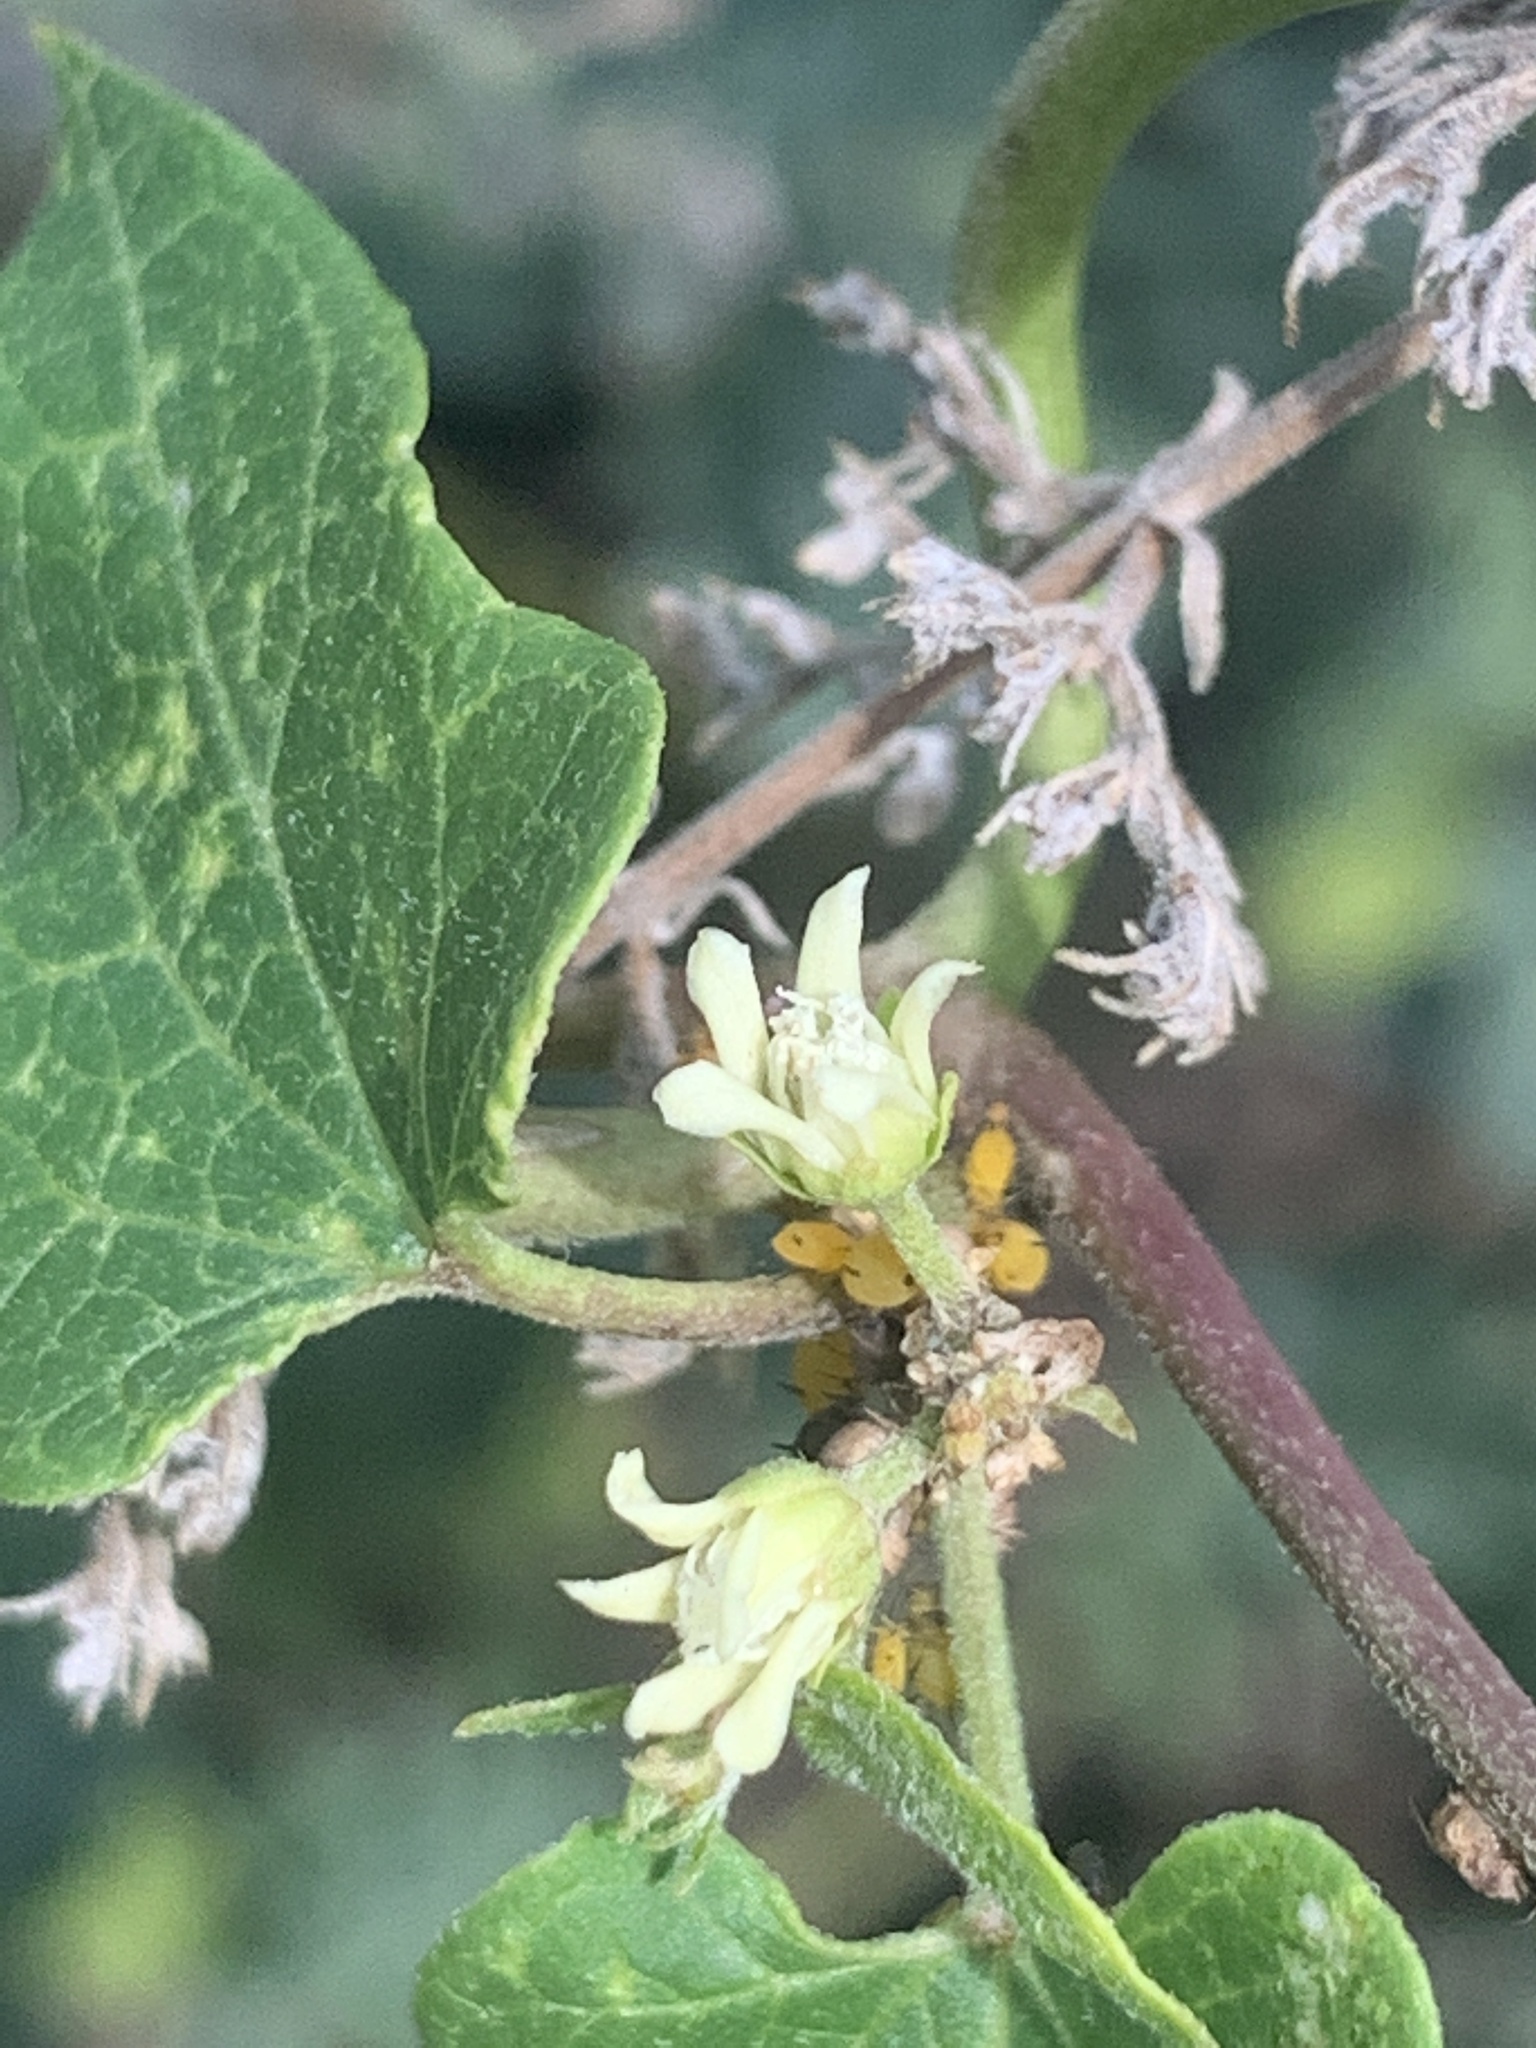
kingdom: Plantae
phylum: Tracheophyta
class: Magnoliopsida
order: Gentianales
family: Apocynaceae
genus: Cynanchum
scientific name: Cynanchum laeve
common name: Sandvine
